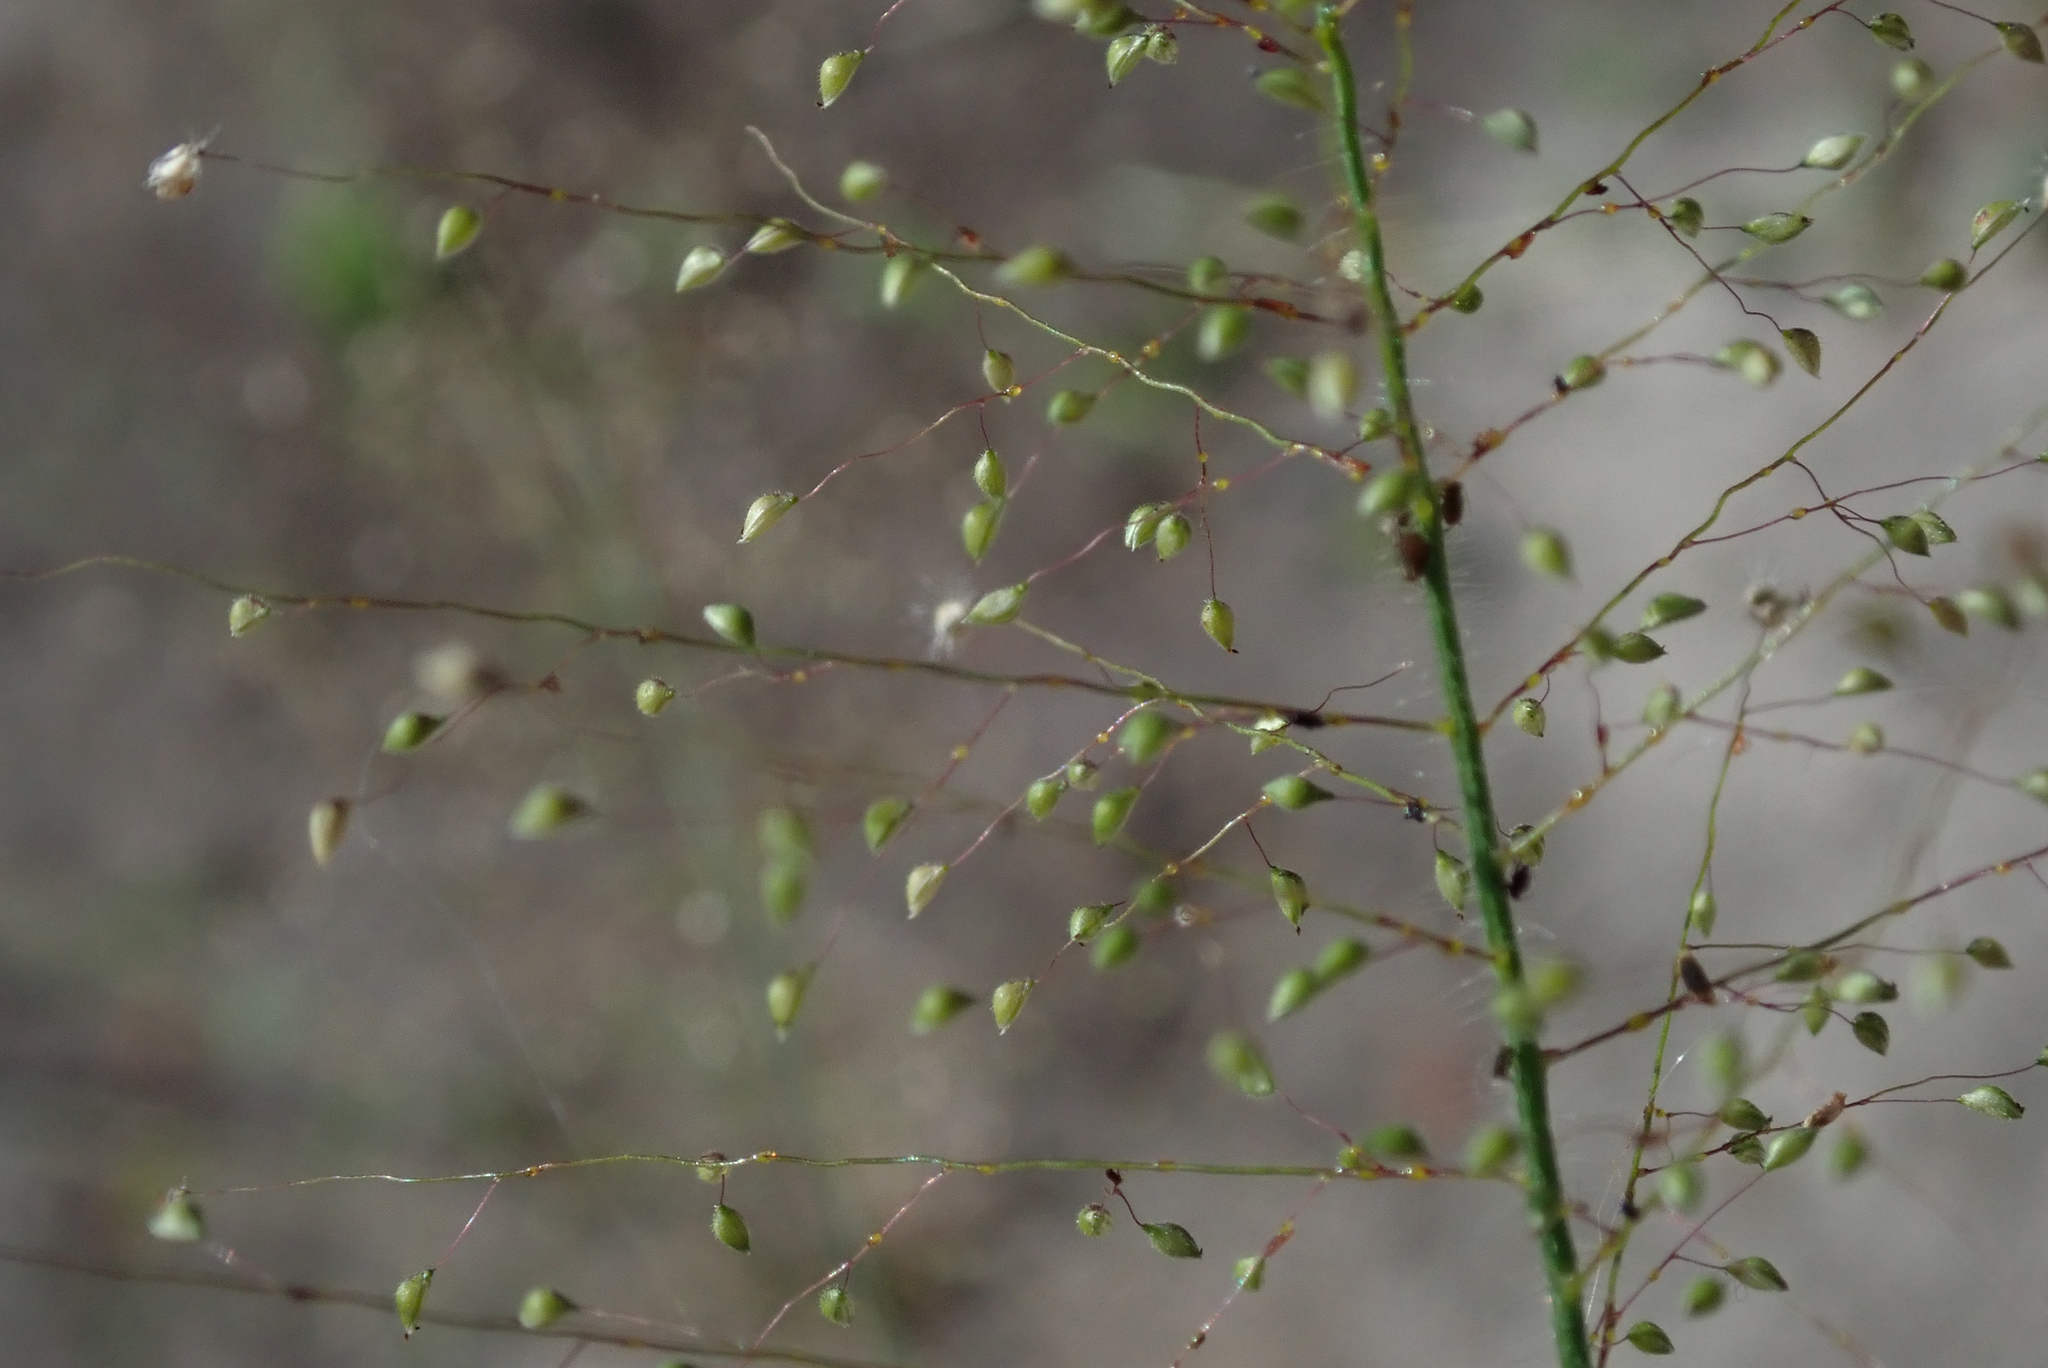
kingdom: Plantae
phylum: Tracheophyta
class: Liliopsida
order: Poales
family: Poaceae
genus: Panicum
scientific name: Panicum hirtum
